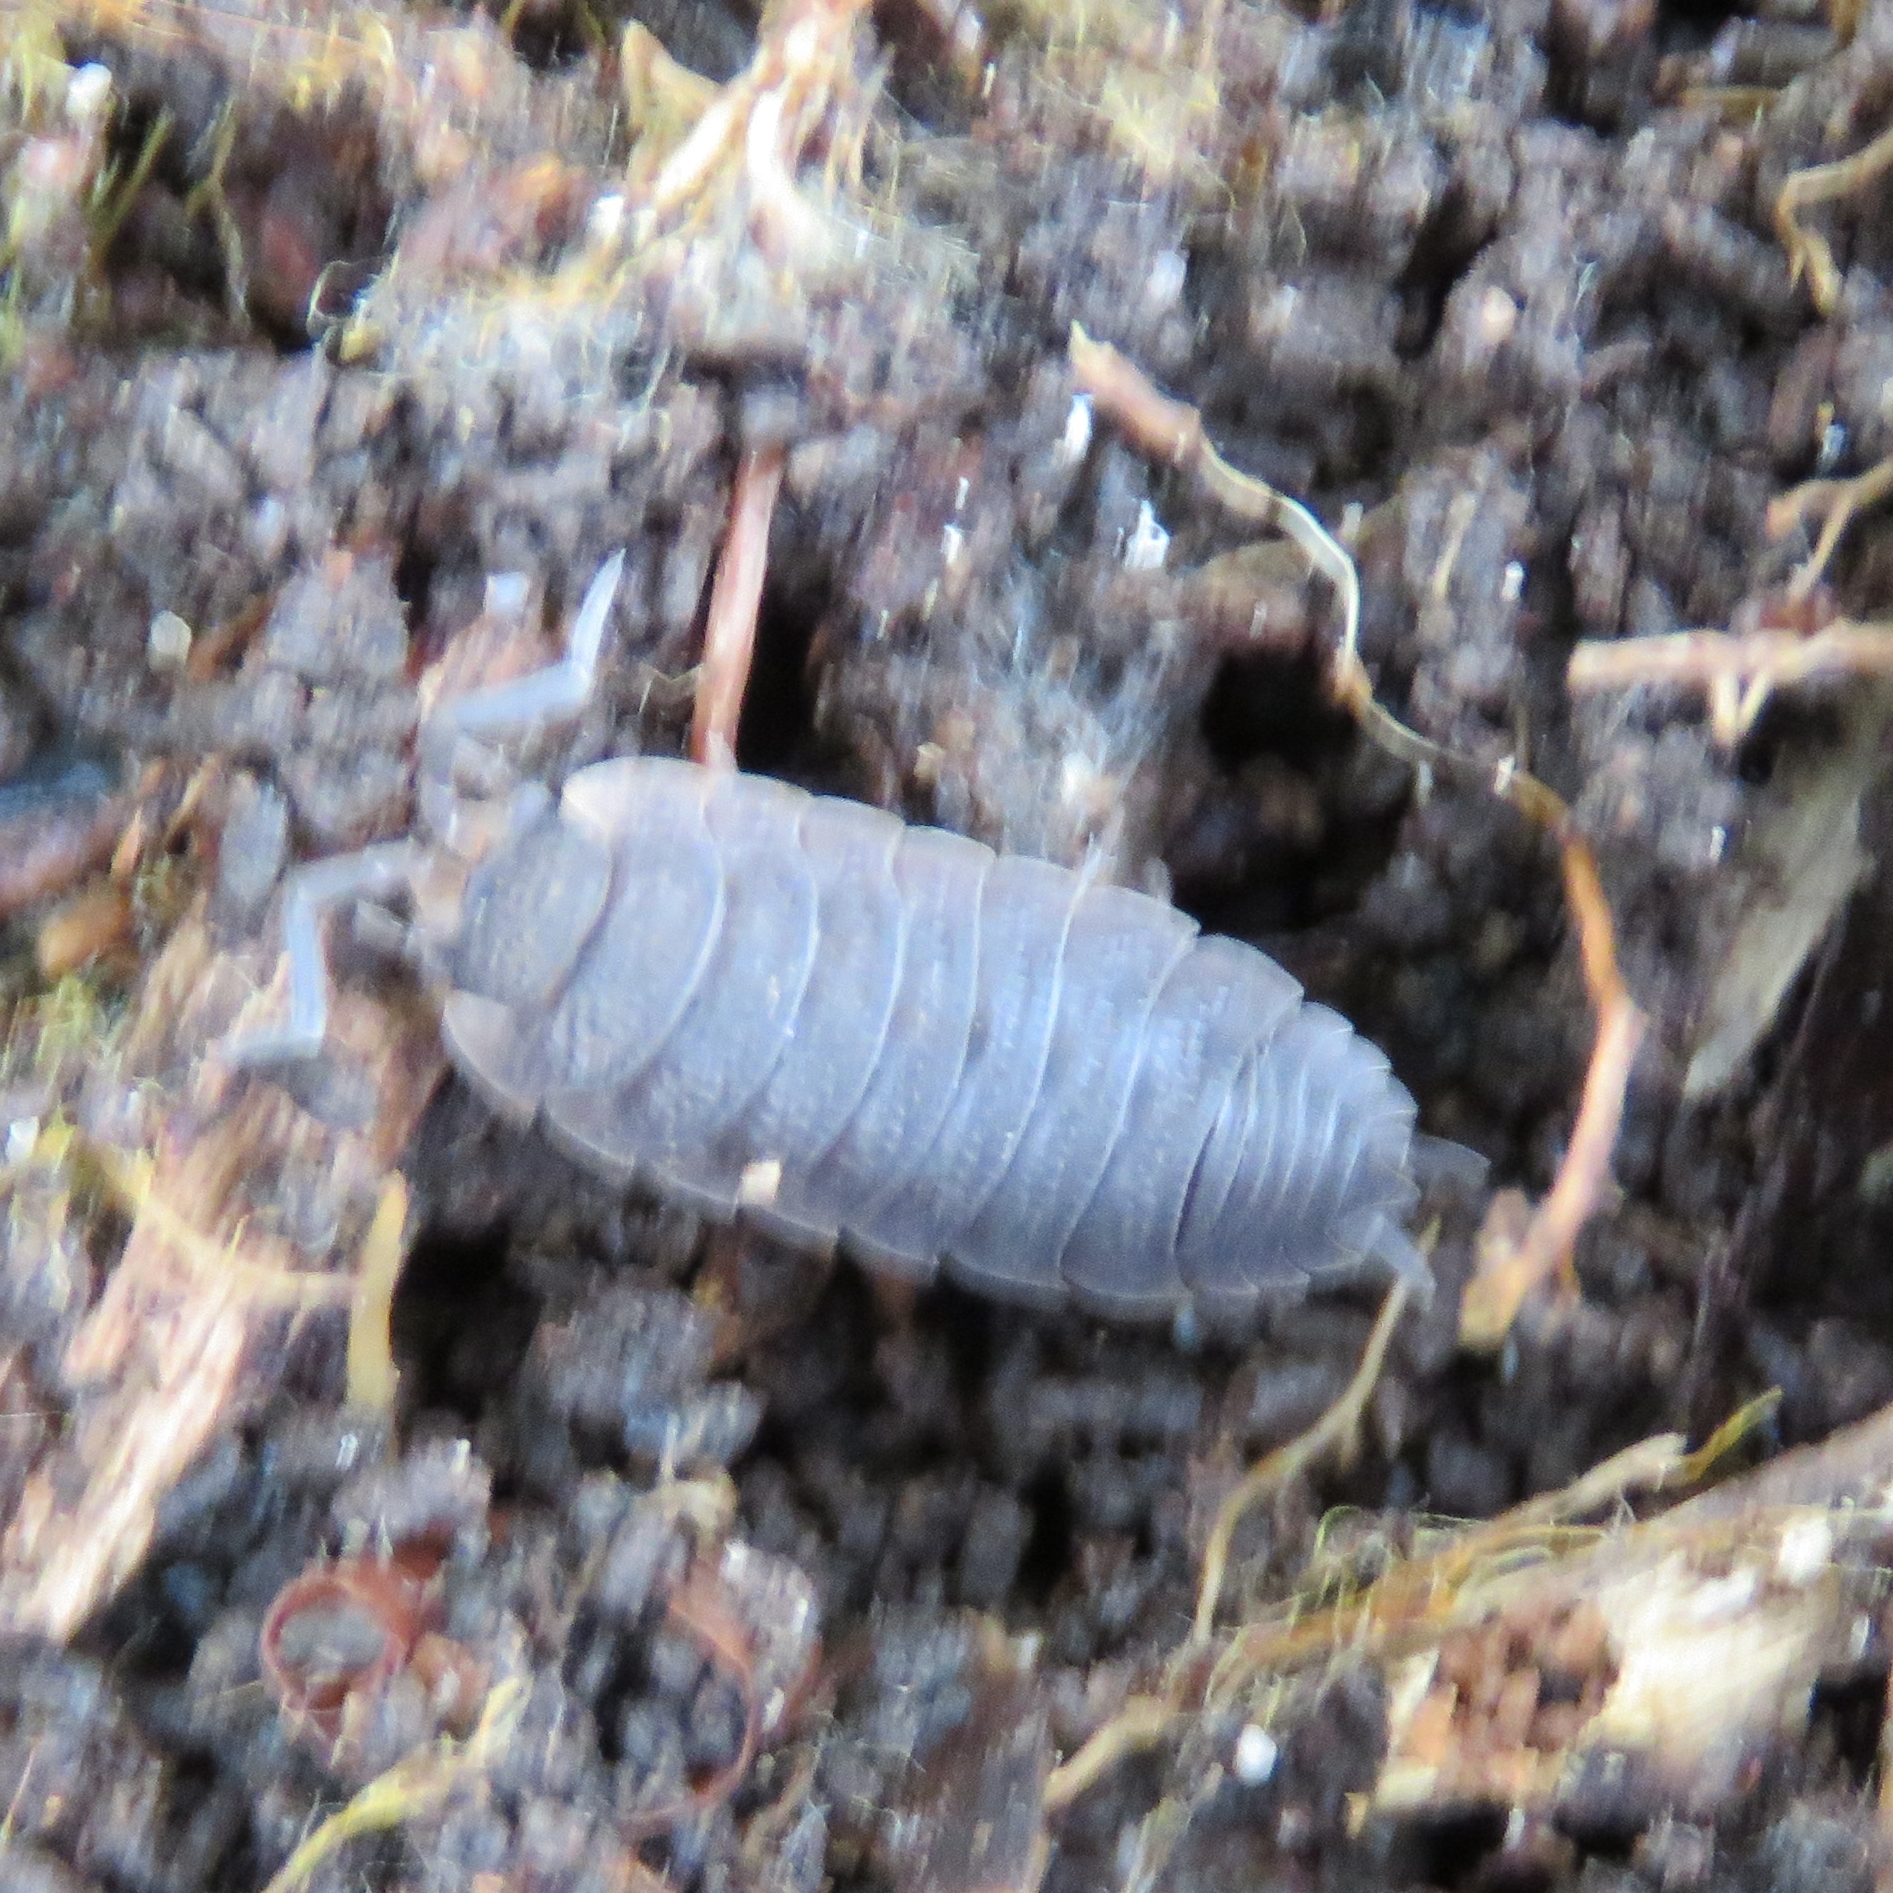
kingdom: Animalia
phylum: Arthropoda
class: Malacostraca
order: Isopoda
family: Porcellionidae
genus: Porcellio
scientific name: Porcellio scaber
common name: Common rough woodlouse
